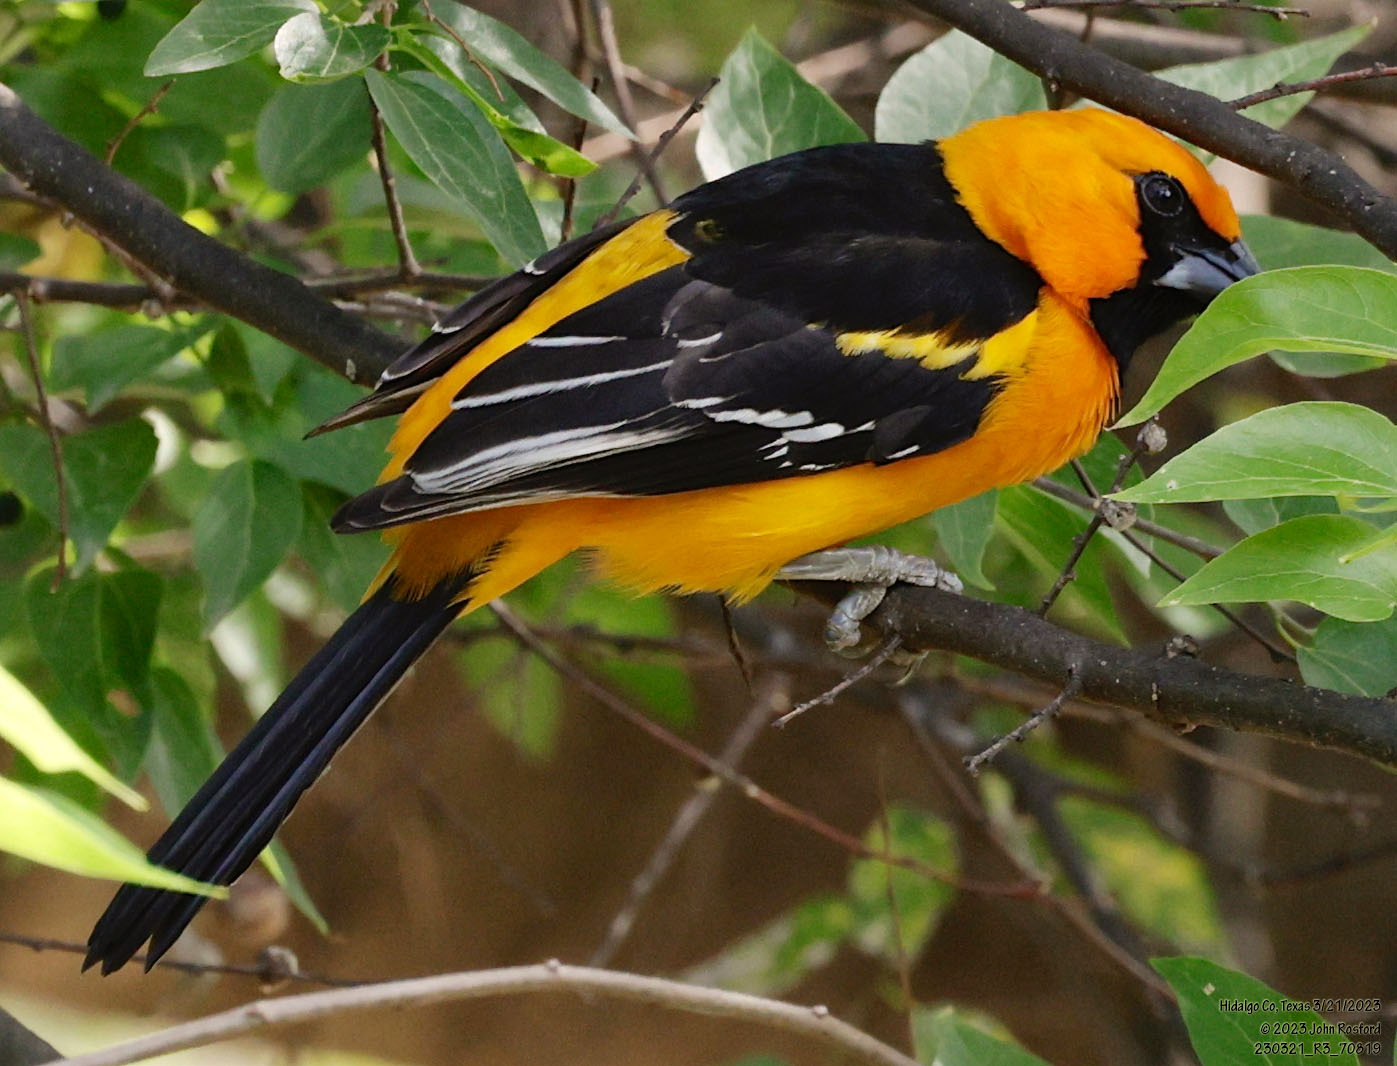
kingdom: Animalia
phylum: Chordata
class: Aves
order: Passeriformes
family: Icteridae
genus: Icterus
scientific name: Icterus gularis
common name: Altamira oriole
